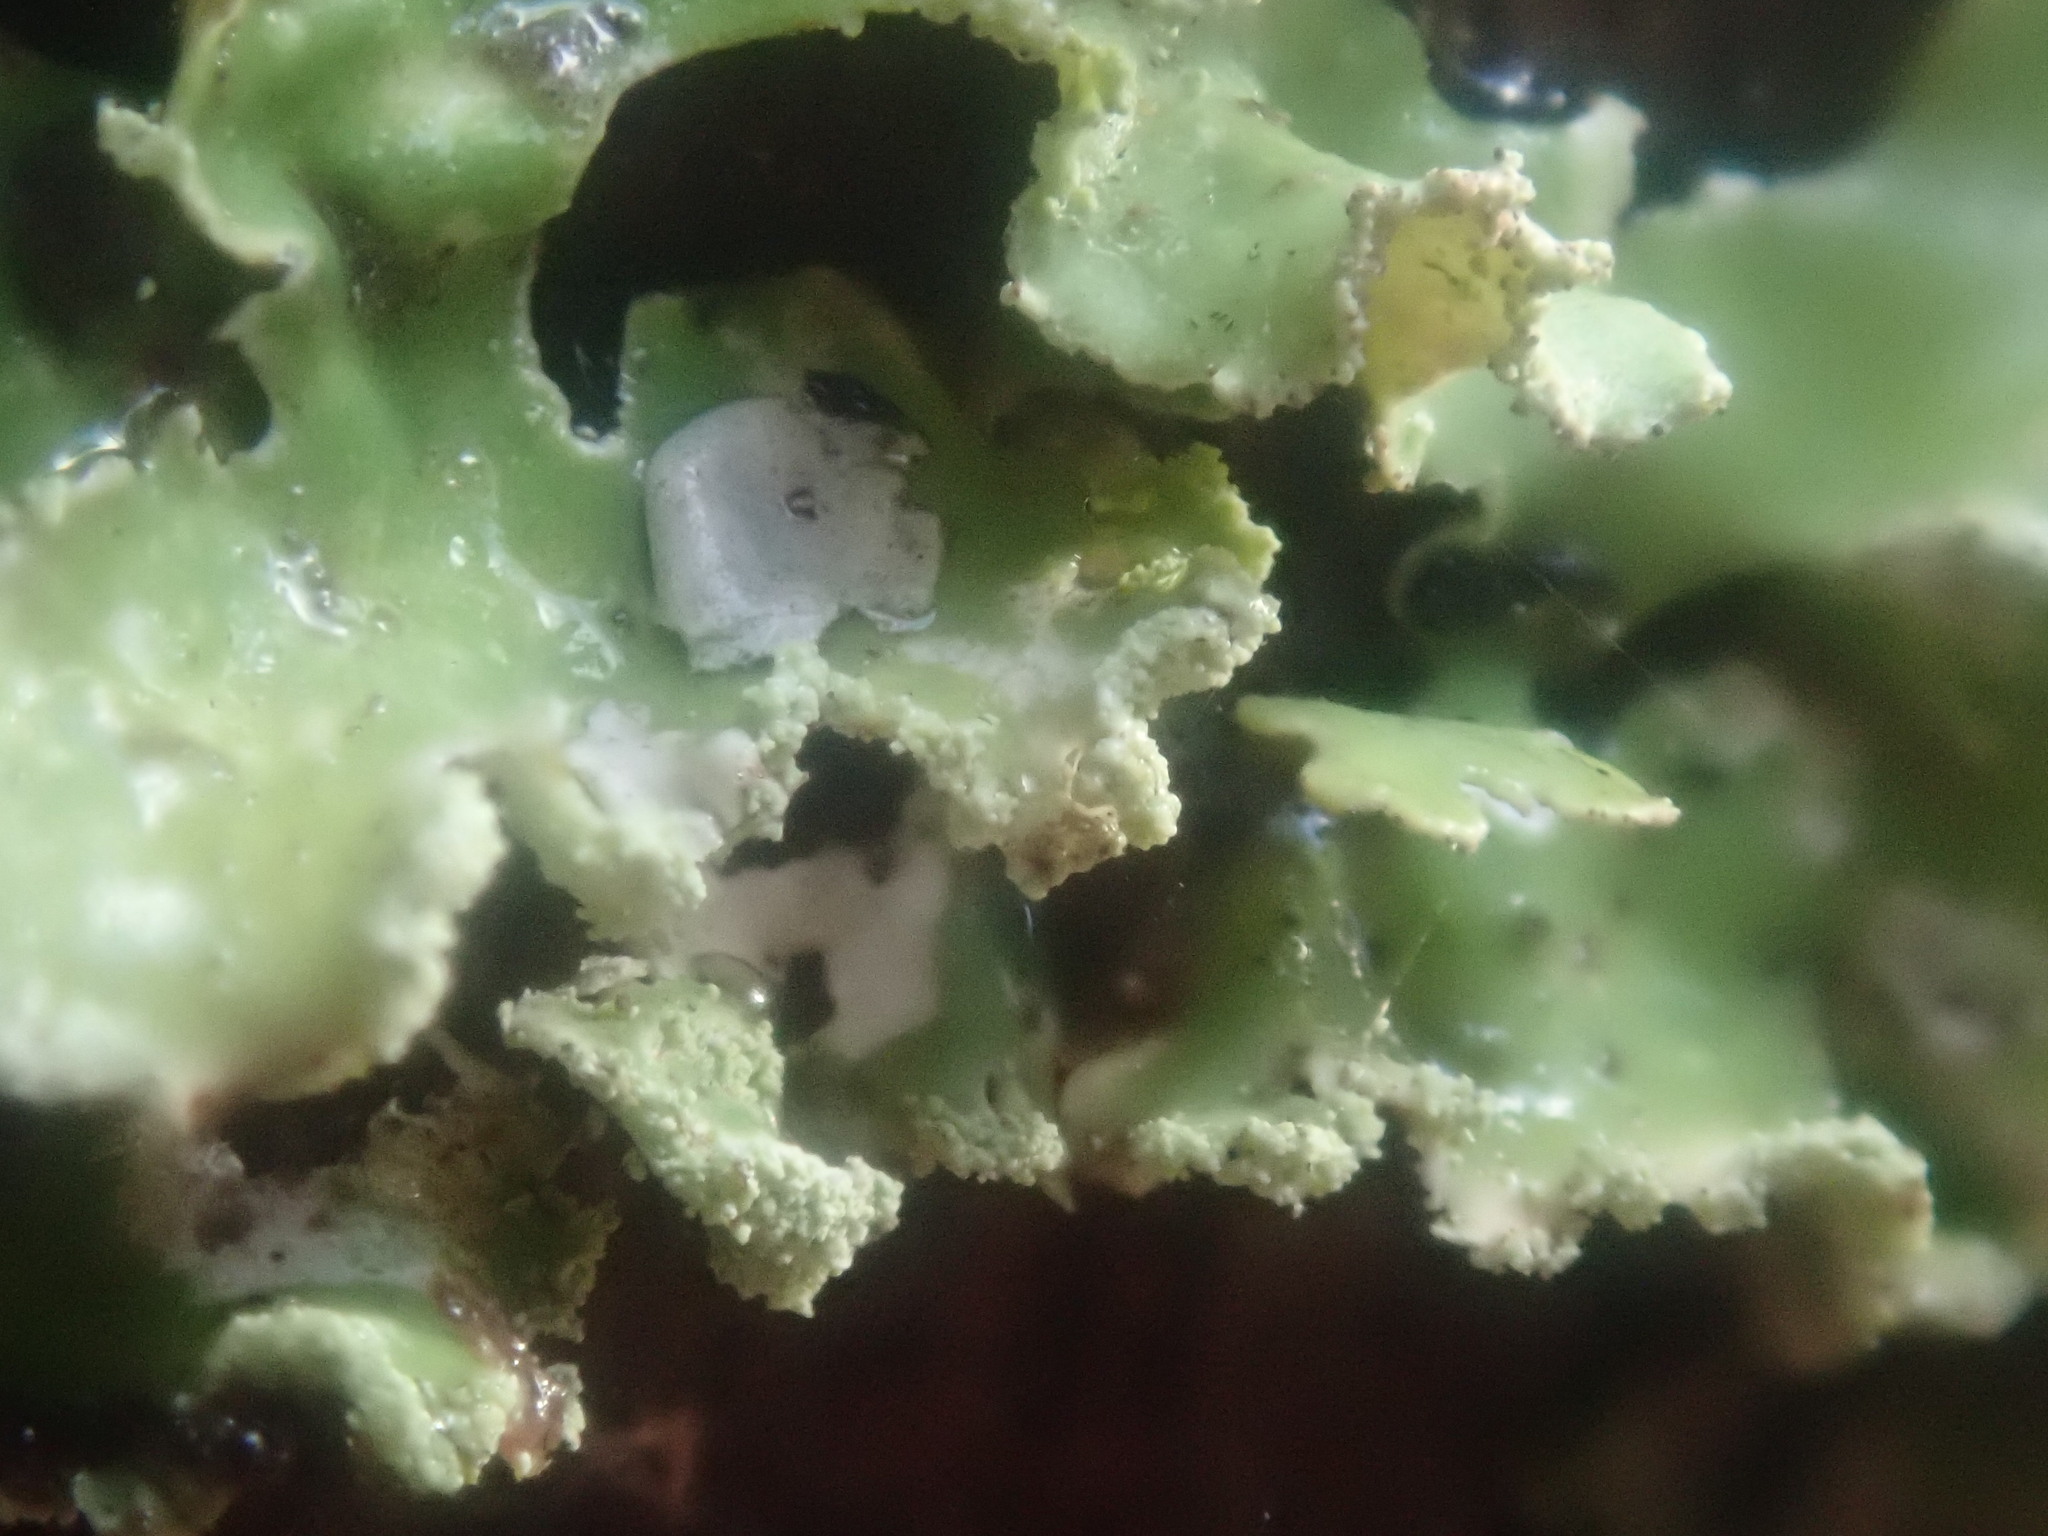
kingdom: Fungi
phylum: Ascomycota
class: Lecanoromycetes
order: Lecanorales
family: Parmeliaceae
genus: Usnocetraria
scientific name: Usnocetraria oakesiana
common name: Yellow ribbon lichen
